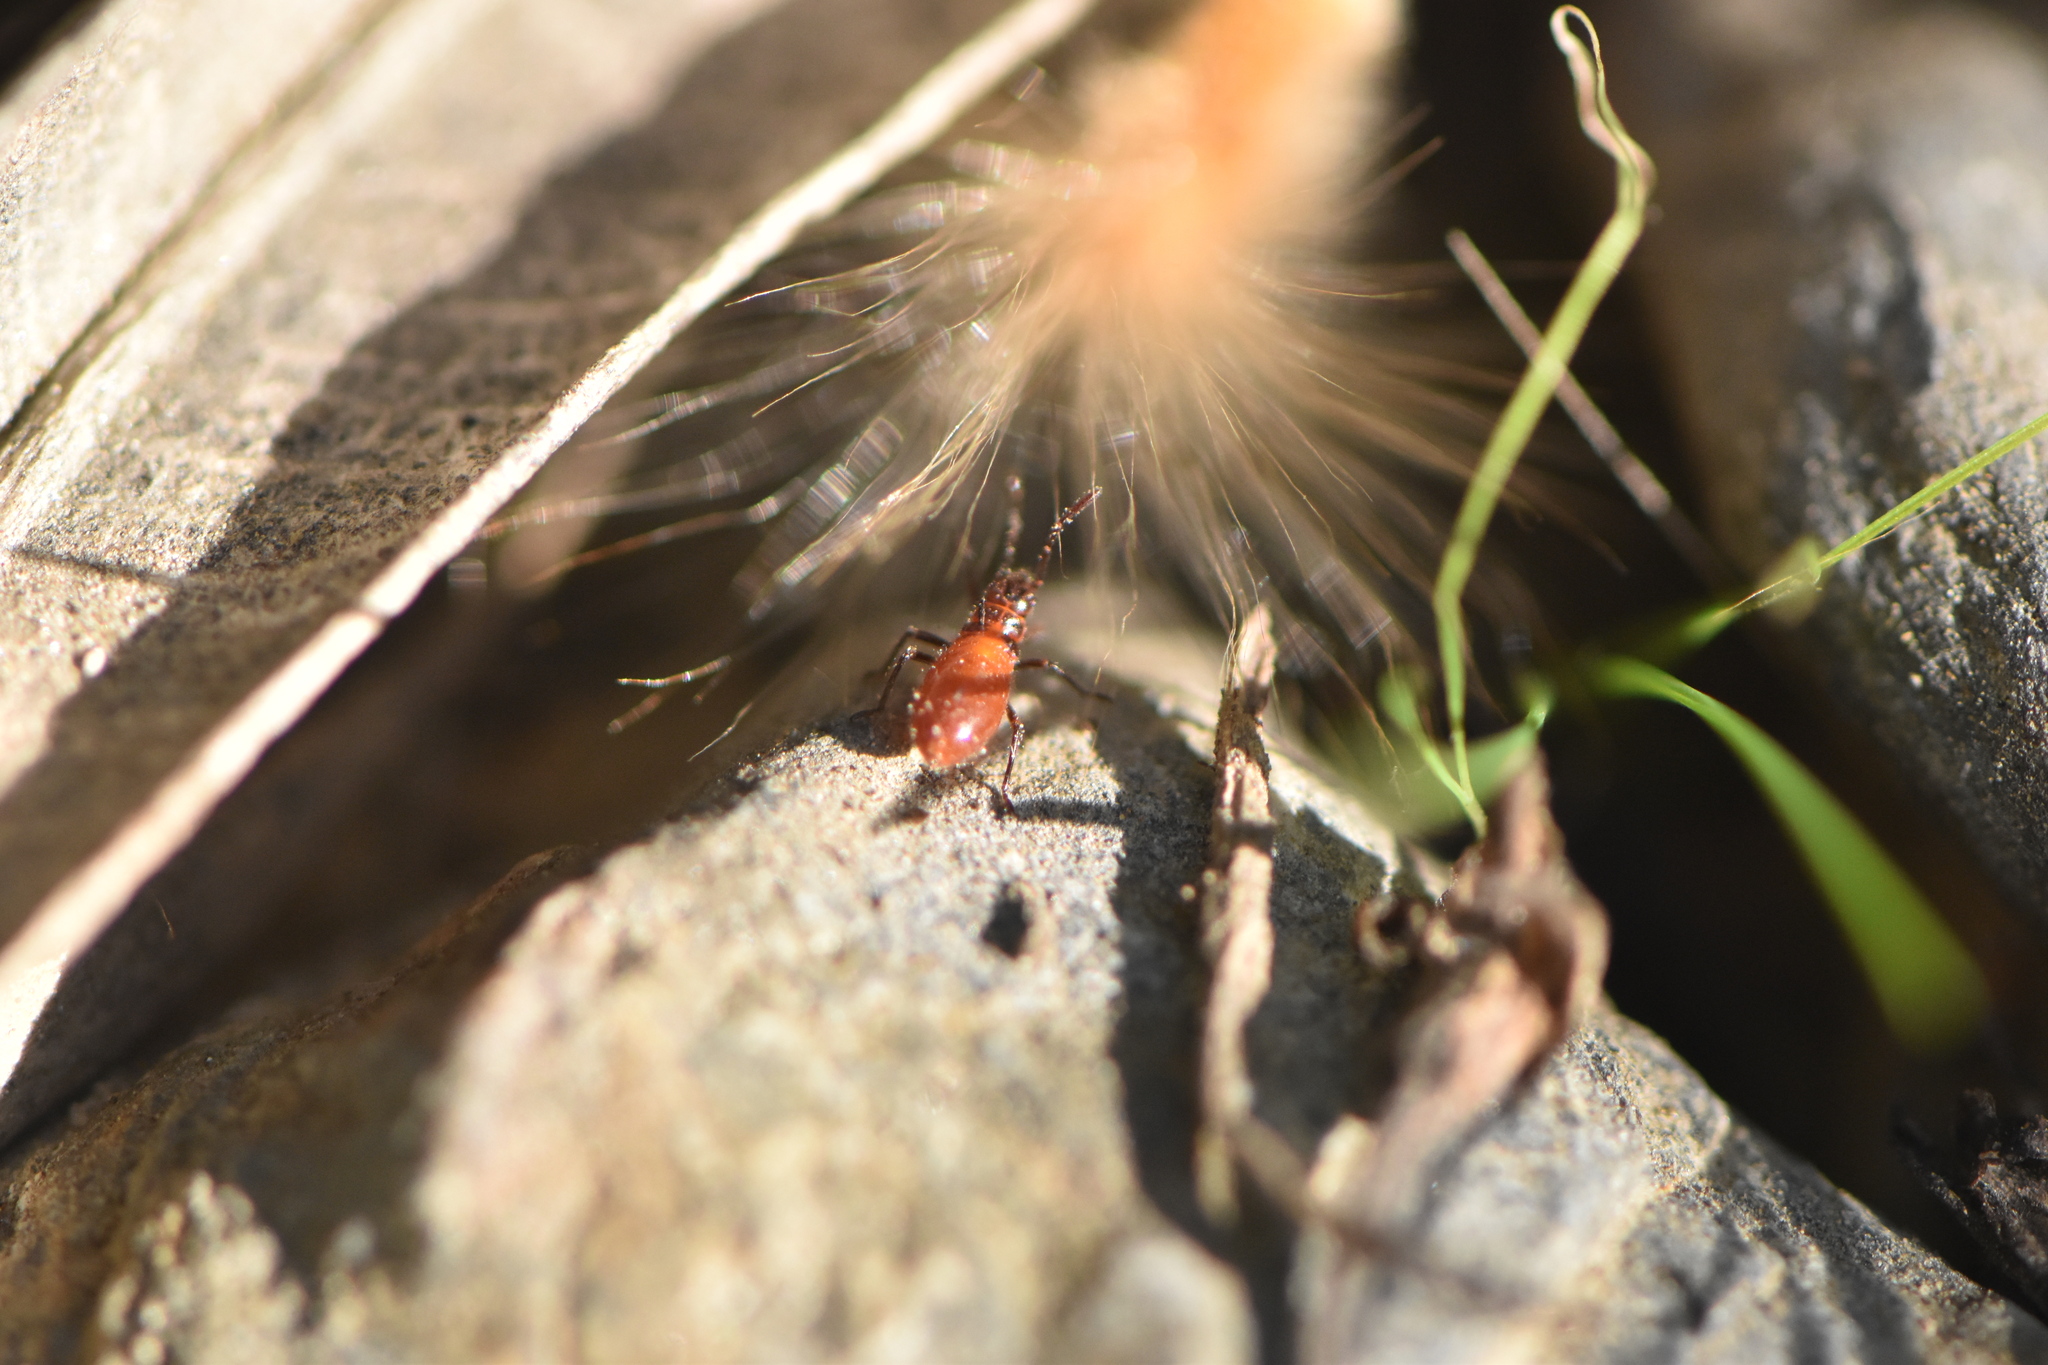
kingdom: Animalia
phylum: Arthropoda
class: Insecta
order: Hemiptera
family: Lygaeidae
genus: Caenocoris
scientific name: Caenocoris nerii
